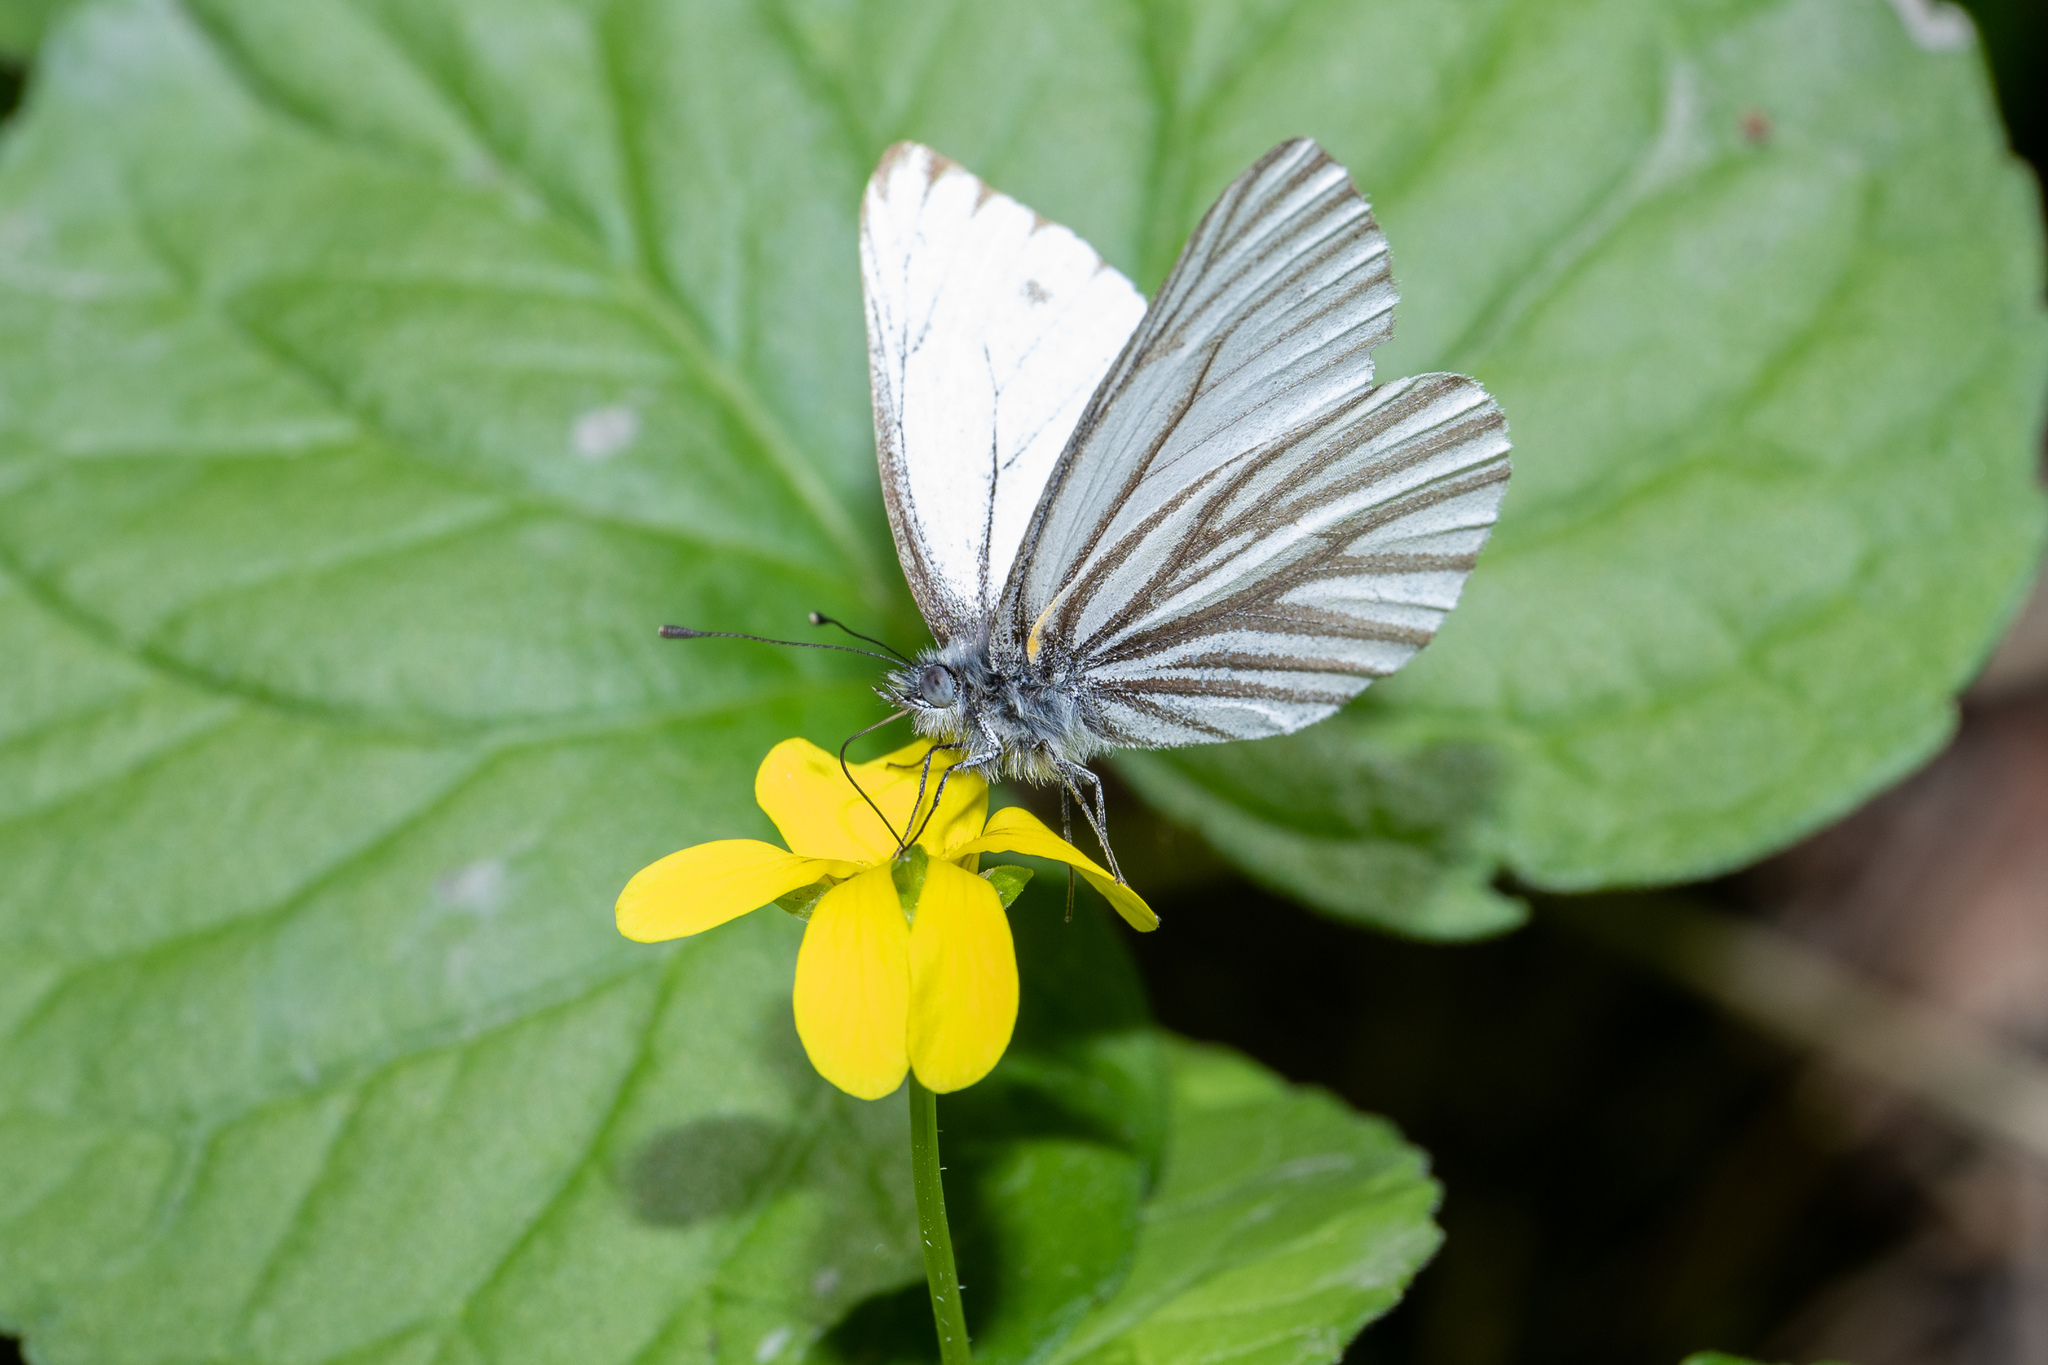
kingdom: Animalia
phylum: Arthropoda
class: Insecta
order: Lepidoptera
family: Pieridae
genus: Pieris
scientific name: Pieris marginalis
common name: Margined white
